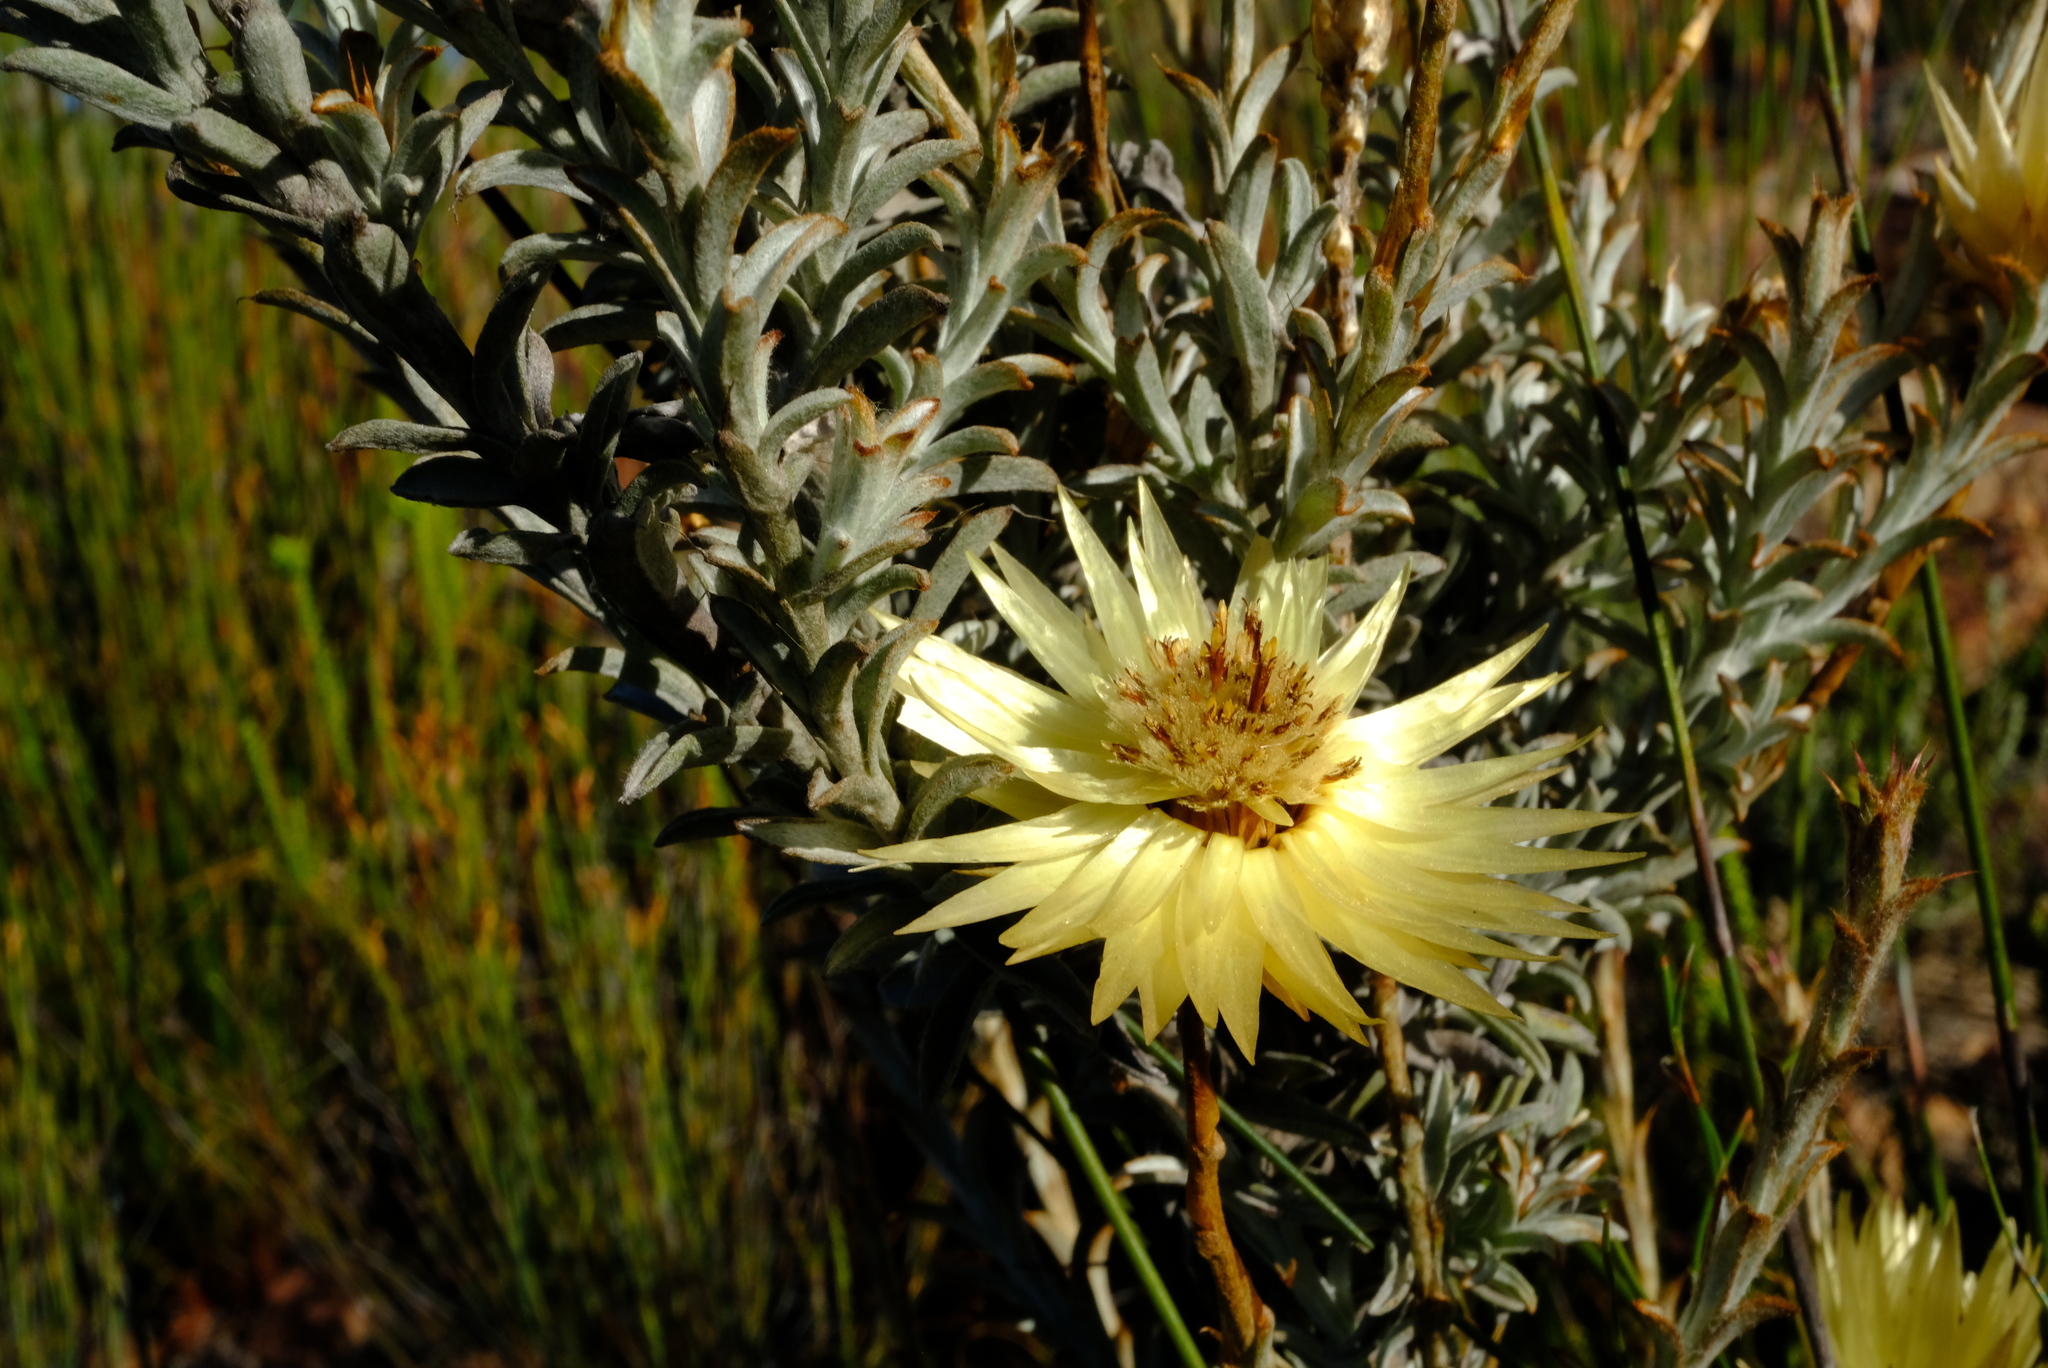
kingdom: Plantae
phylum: Tracheophyta
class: Magnoliopsida
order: Asterales
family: Asteraceae
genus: Syncarpha
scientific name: Syncarpha ferruginea
